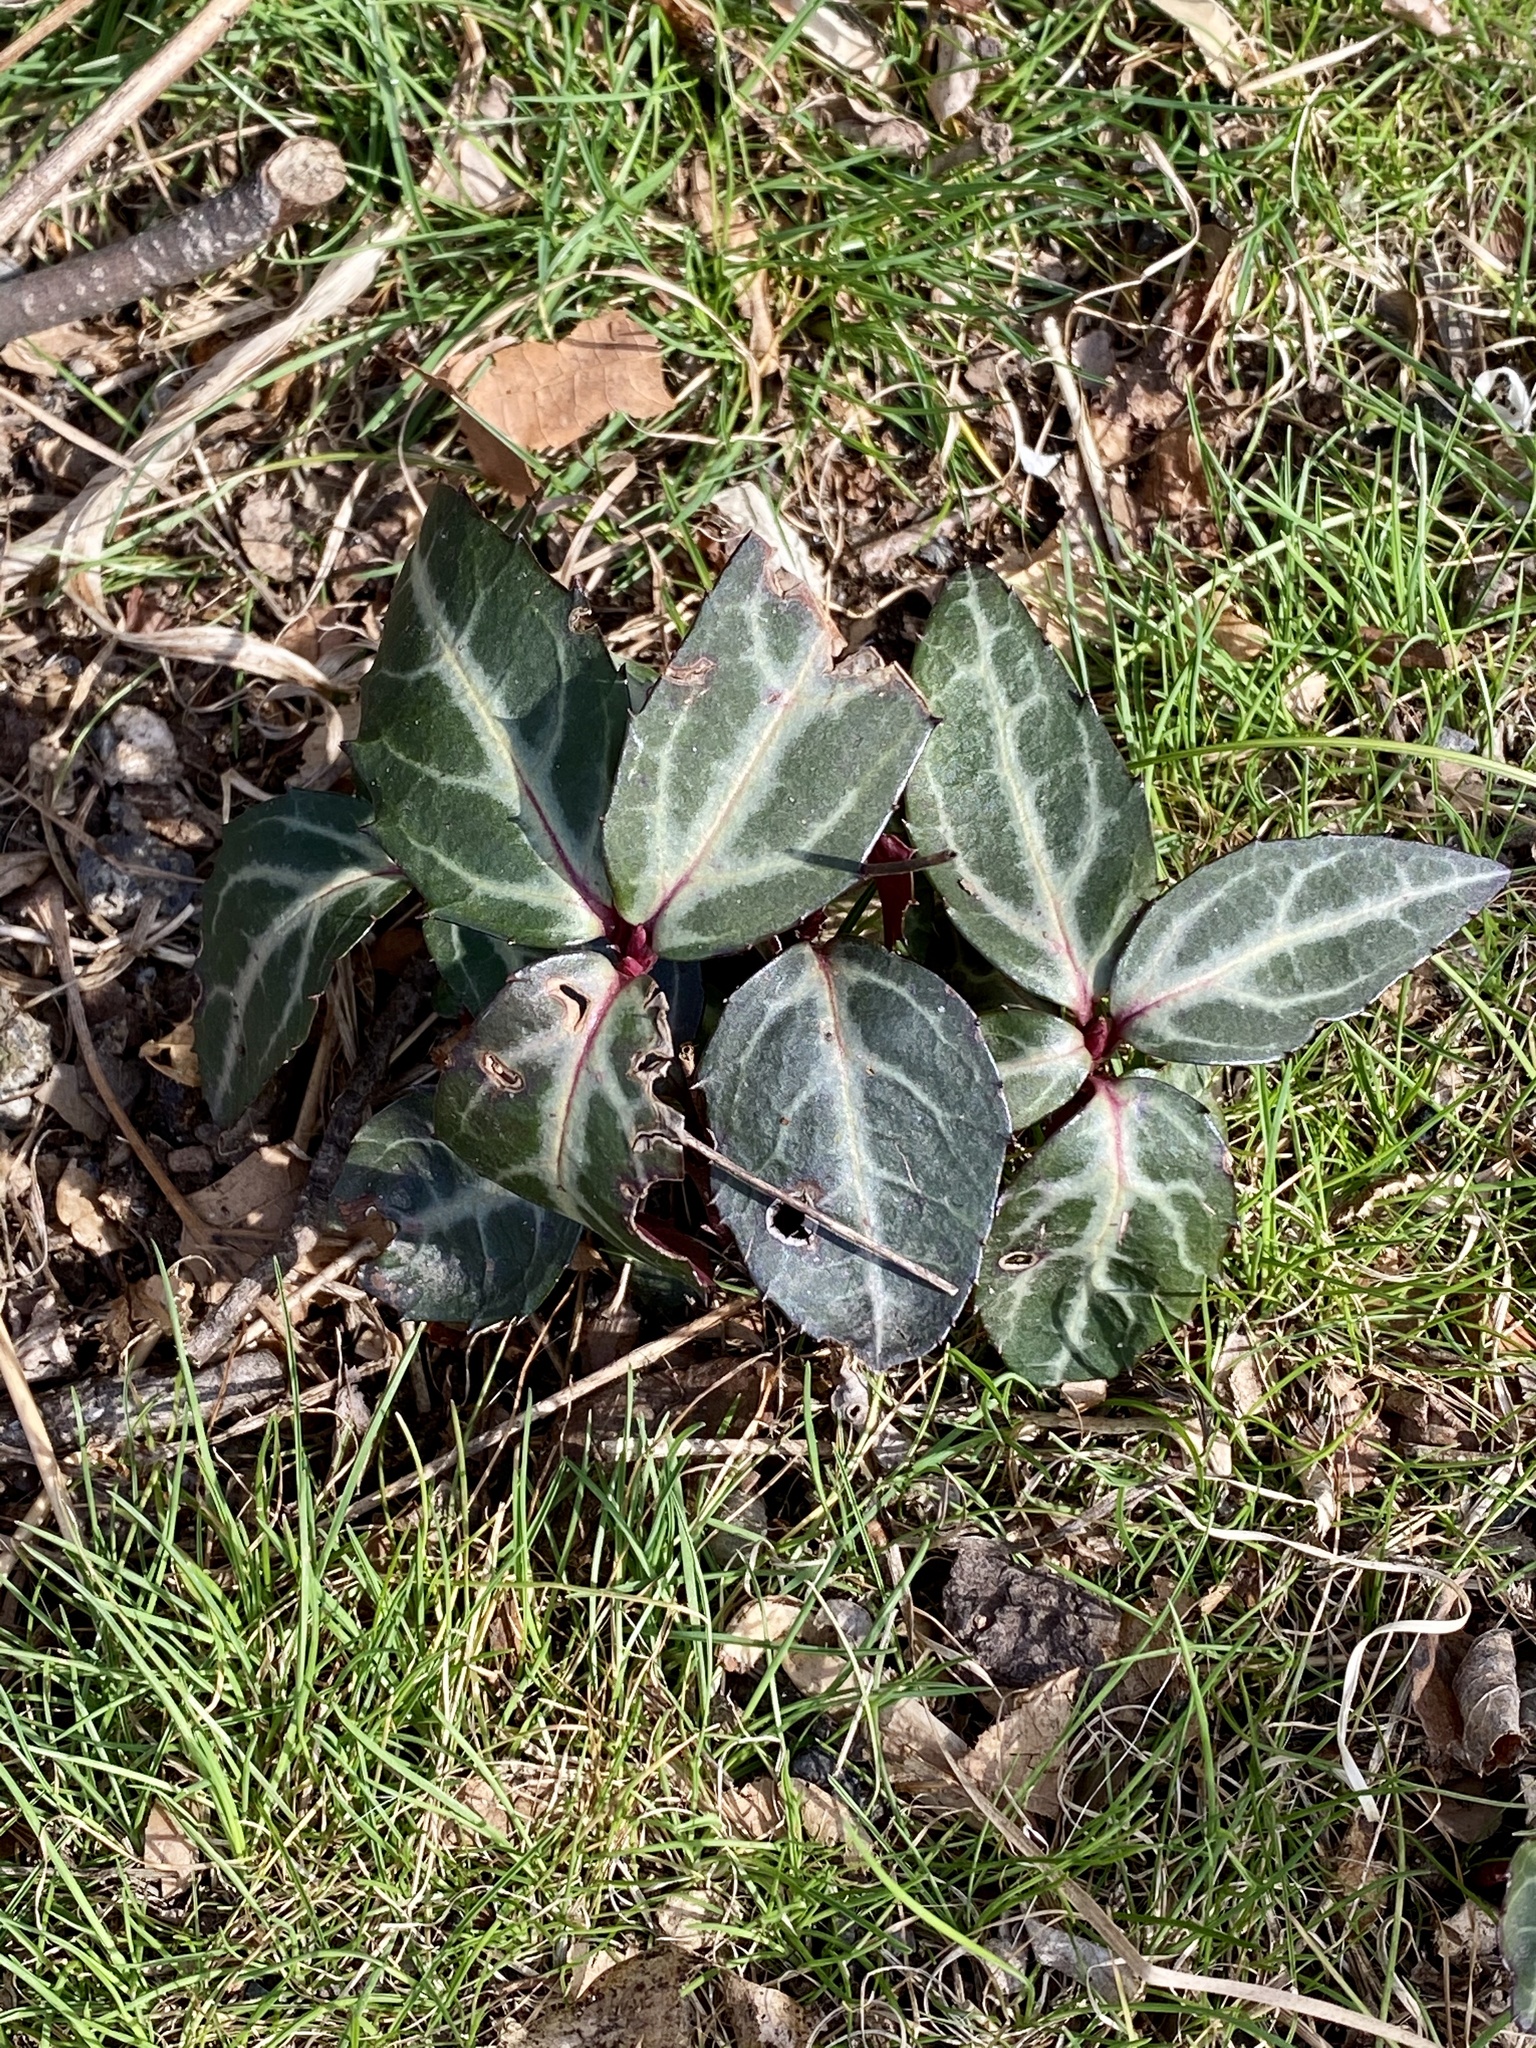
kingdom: Plantae
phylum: Tracheophyta
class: Magnoliopsida
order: Ericales
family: Ericaceae
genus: Chimaphila
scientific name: Chimaphila maculata
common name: Spotted pipsissewa
